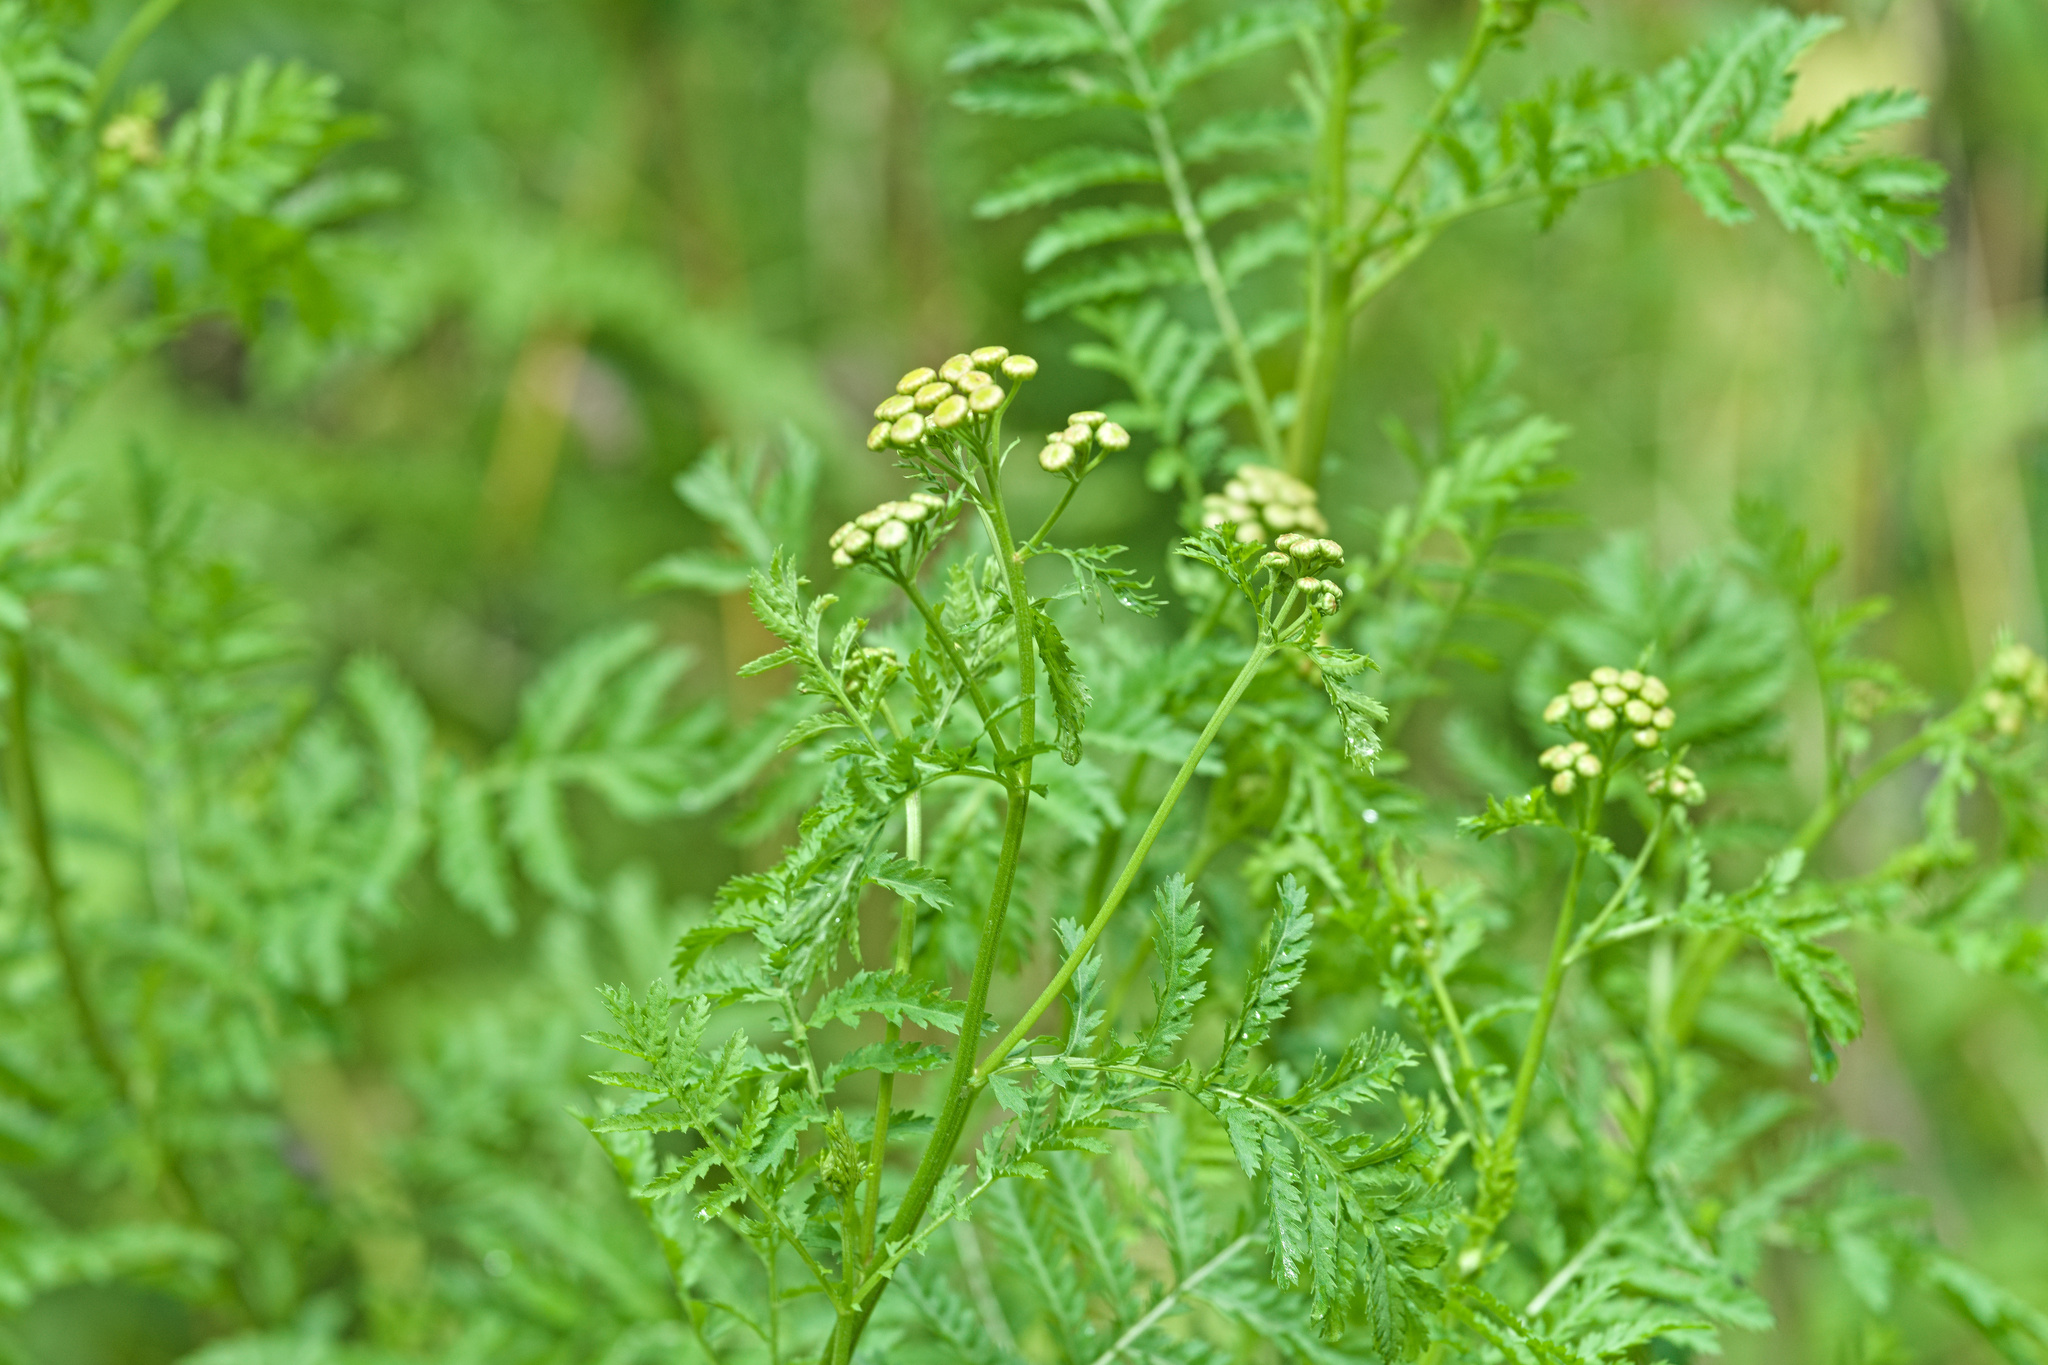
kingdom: Plantae
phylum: Tracheophyta
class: Magnoliopsida
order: Asterales
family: Asteraceae
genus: Tanacetum
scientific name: Tanacetum vulgare
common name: Common tansy
